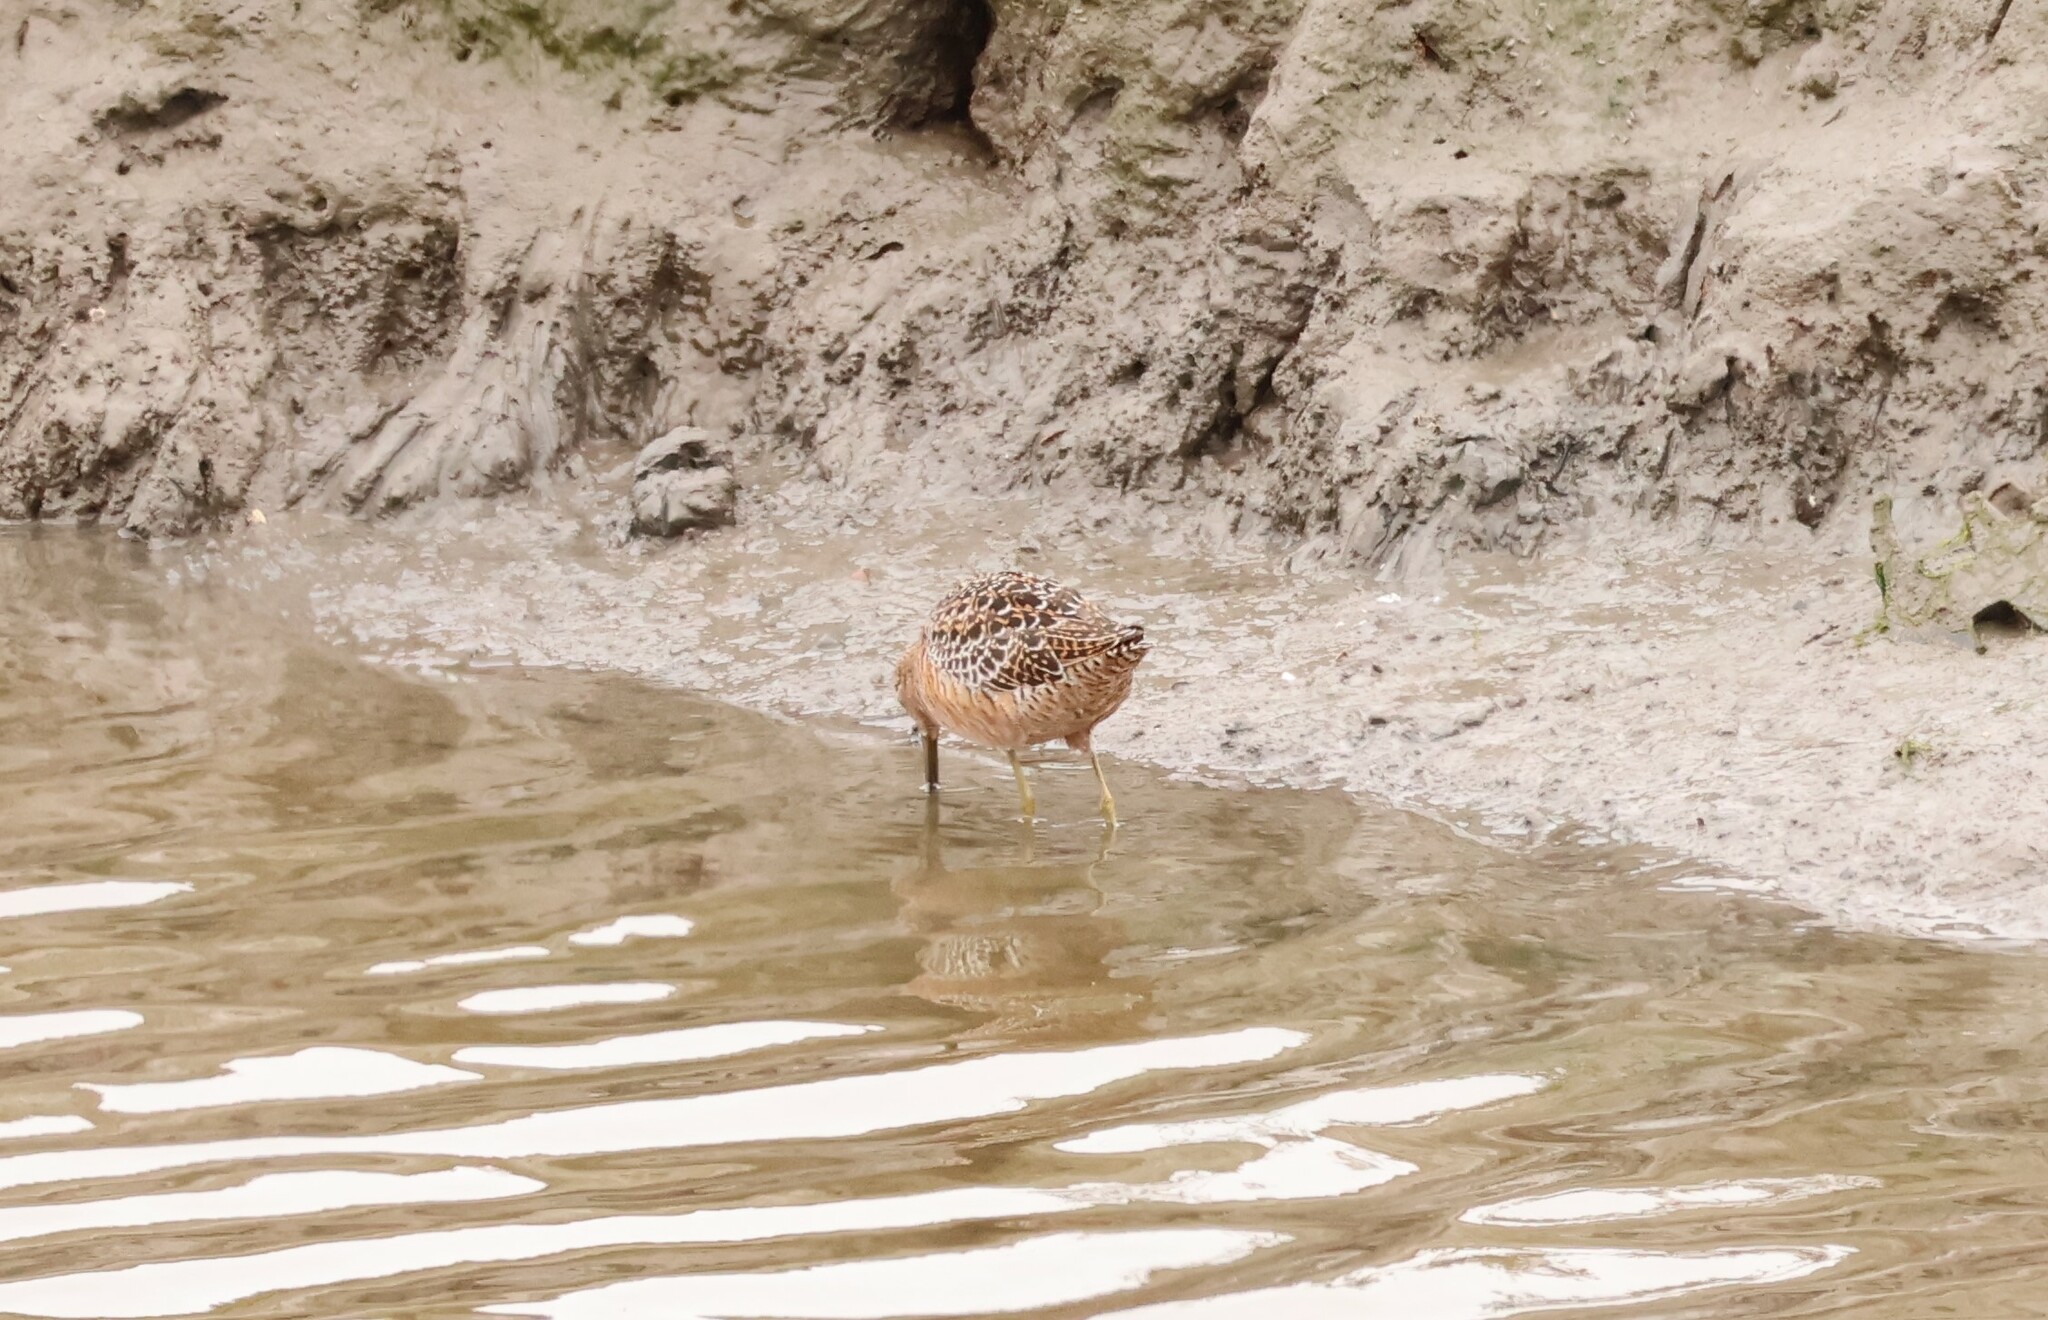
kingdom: Animalia
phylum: Chordata
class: Aves
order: Charadriiformes
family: Scolopacidae
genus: Limnodromus
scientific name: Limnodromus scolopaceus
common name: Long-billed dowitcher
